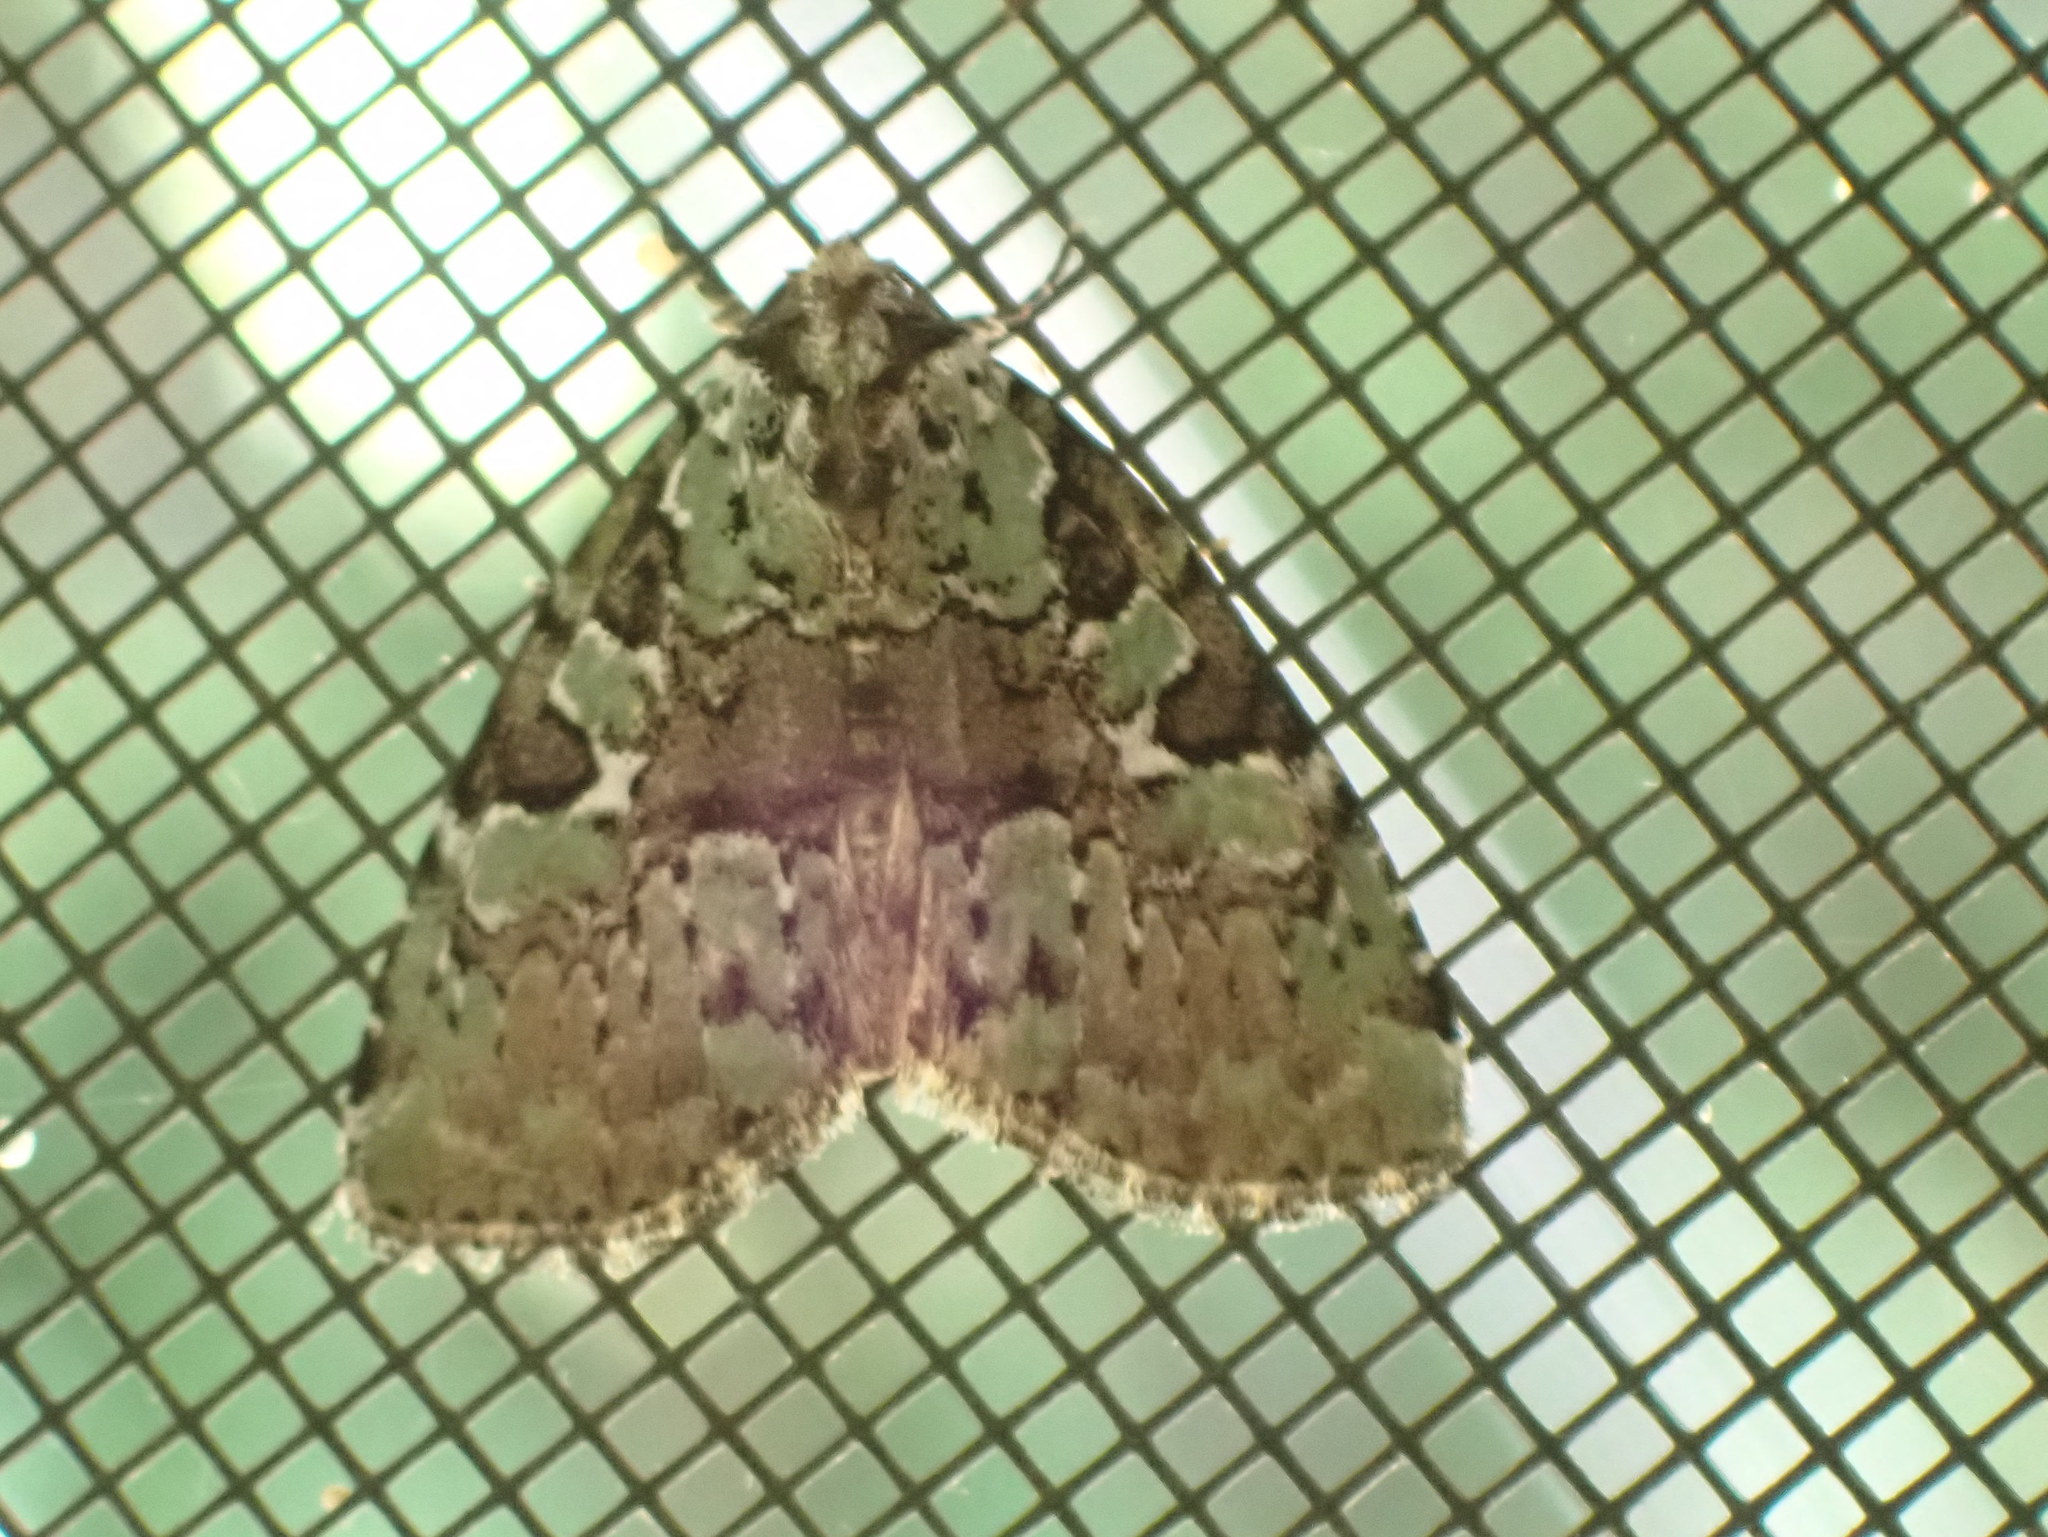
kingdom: Animalia
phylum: Arthropoda
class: Insecta
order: Lepidoptera
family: Noctuidae
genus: Leuconycta
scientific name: Leuconycta lepidula
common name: Marbled-green leuconycta moth
